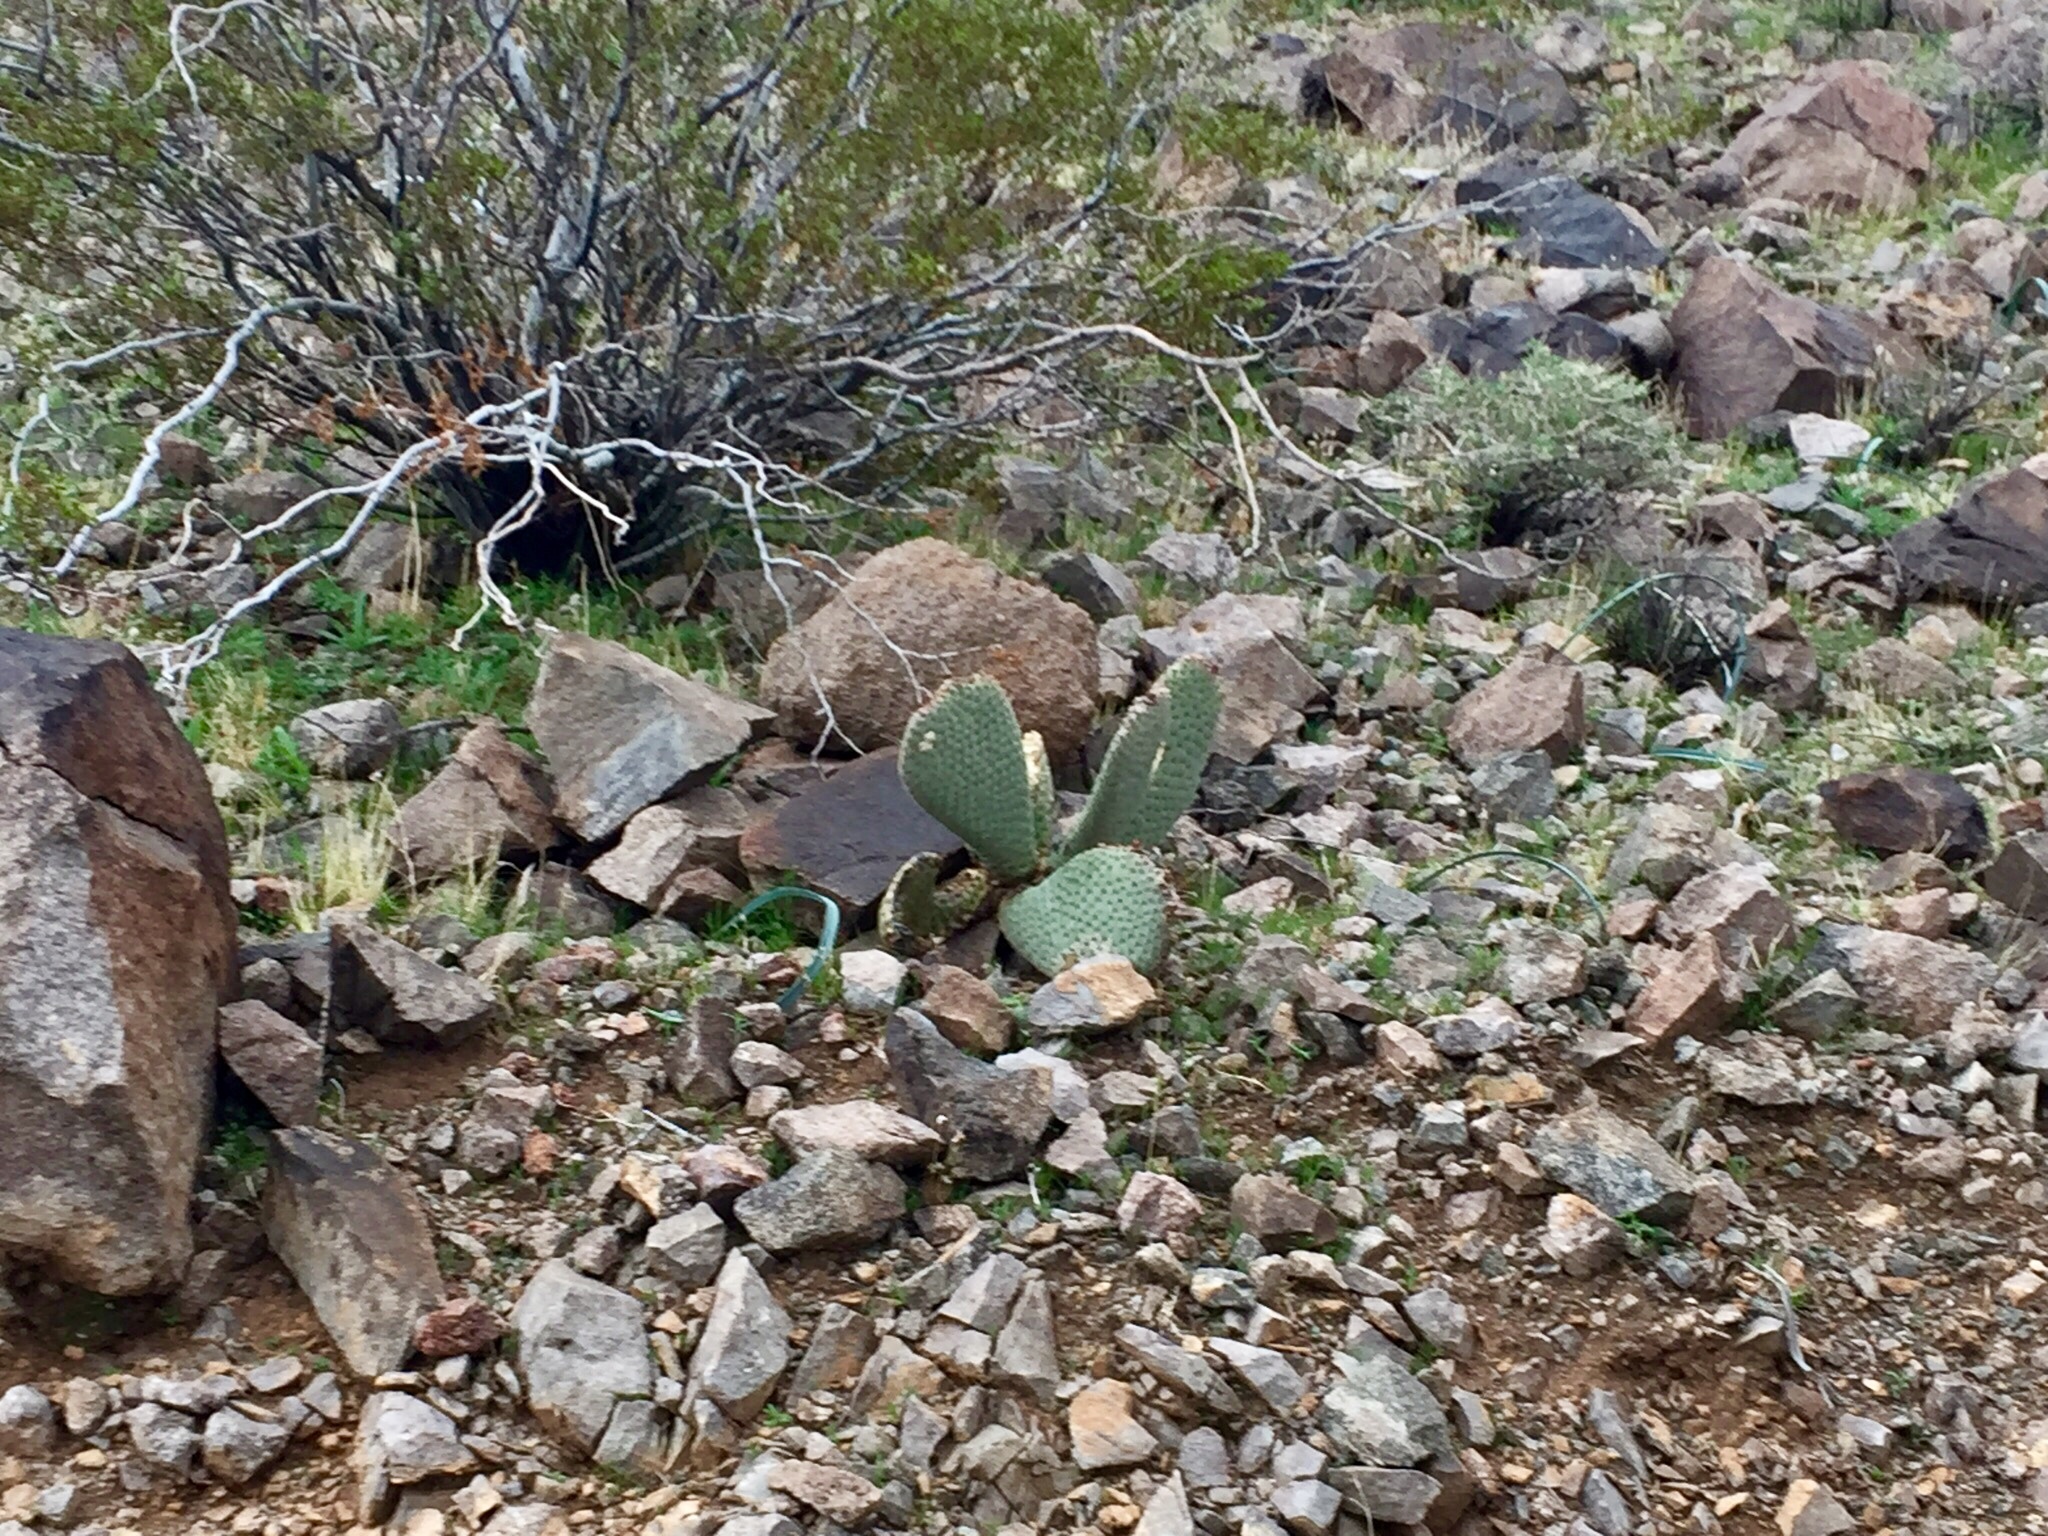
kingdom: Plantae
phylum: Tracheophyta
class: Magnoliopsida
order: Caryophyllales
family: Cactaceae
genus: Opuntia
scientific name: Opuntia basilaris
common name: Beavertail prickly-pear
